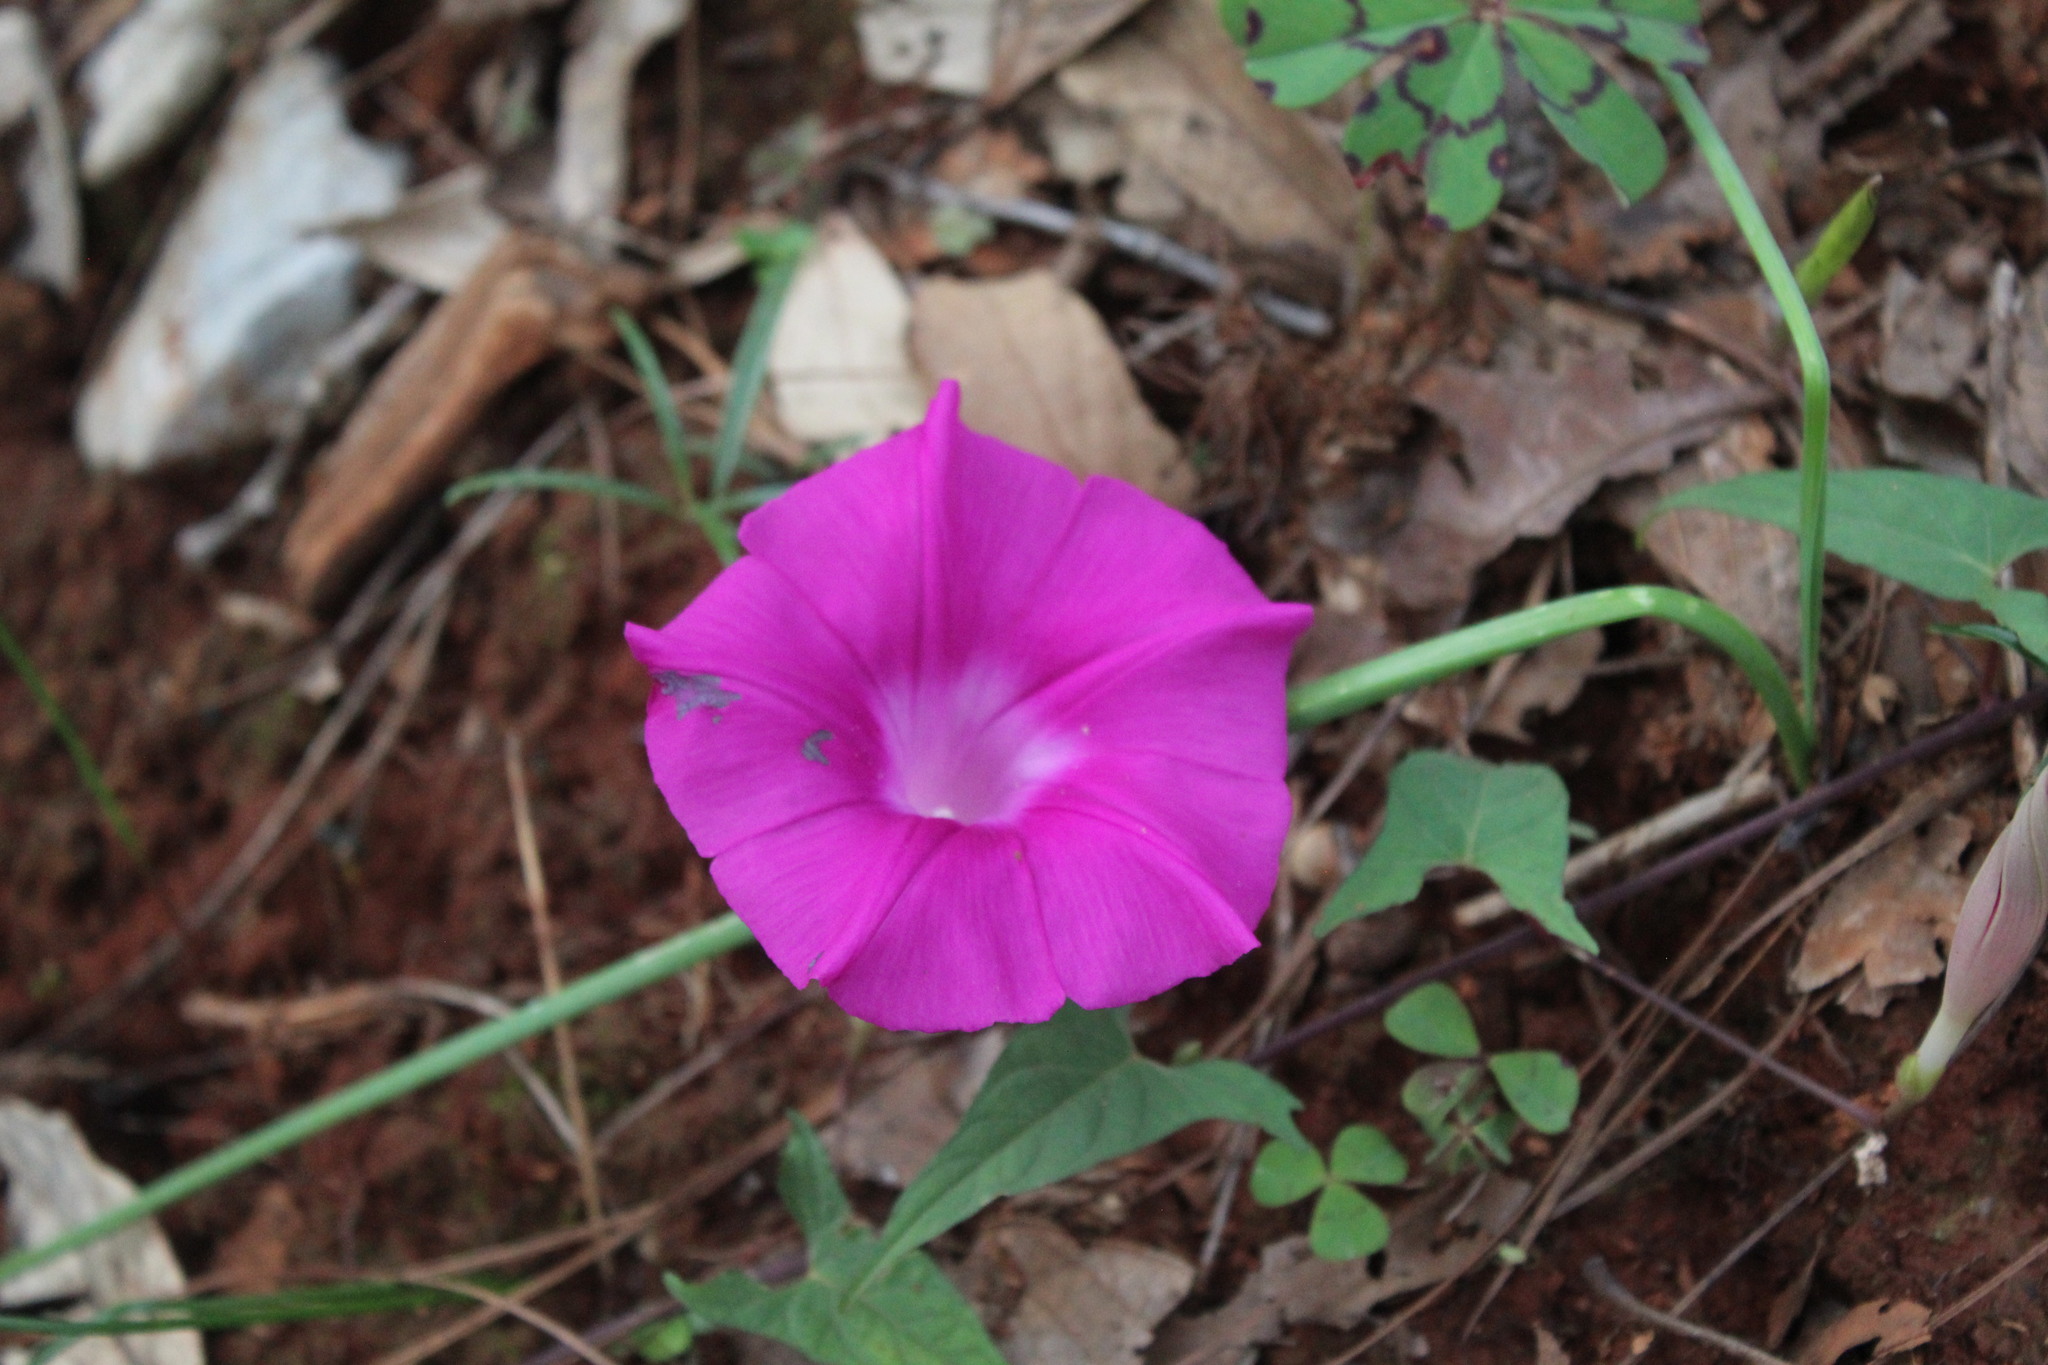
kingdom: Plantae
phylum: Tracheophyta
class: Magnoliopsida
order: Solanales
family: Convolvulaceae
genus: Ipomoea
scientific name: Ipomoea elongata
